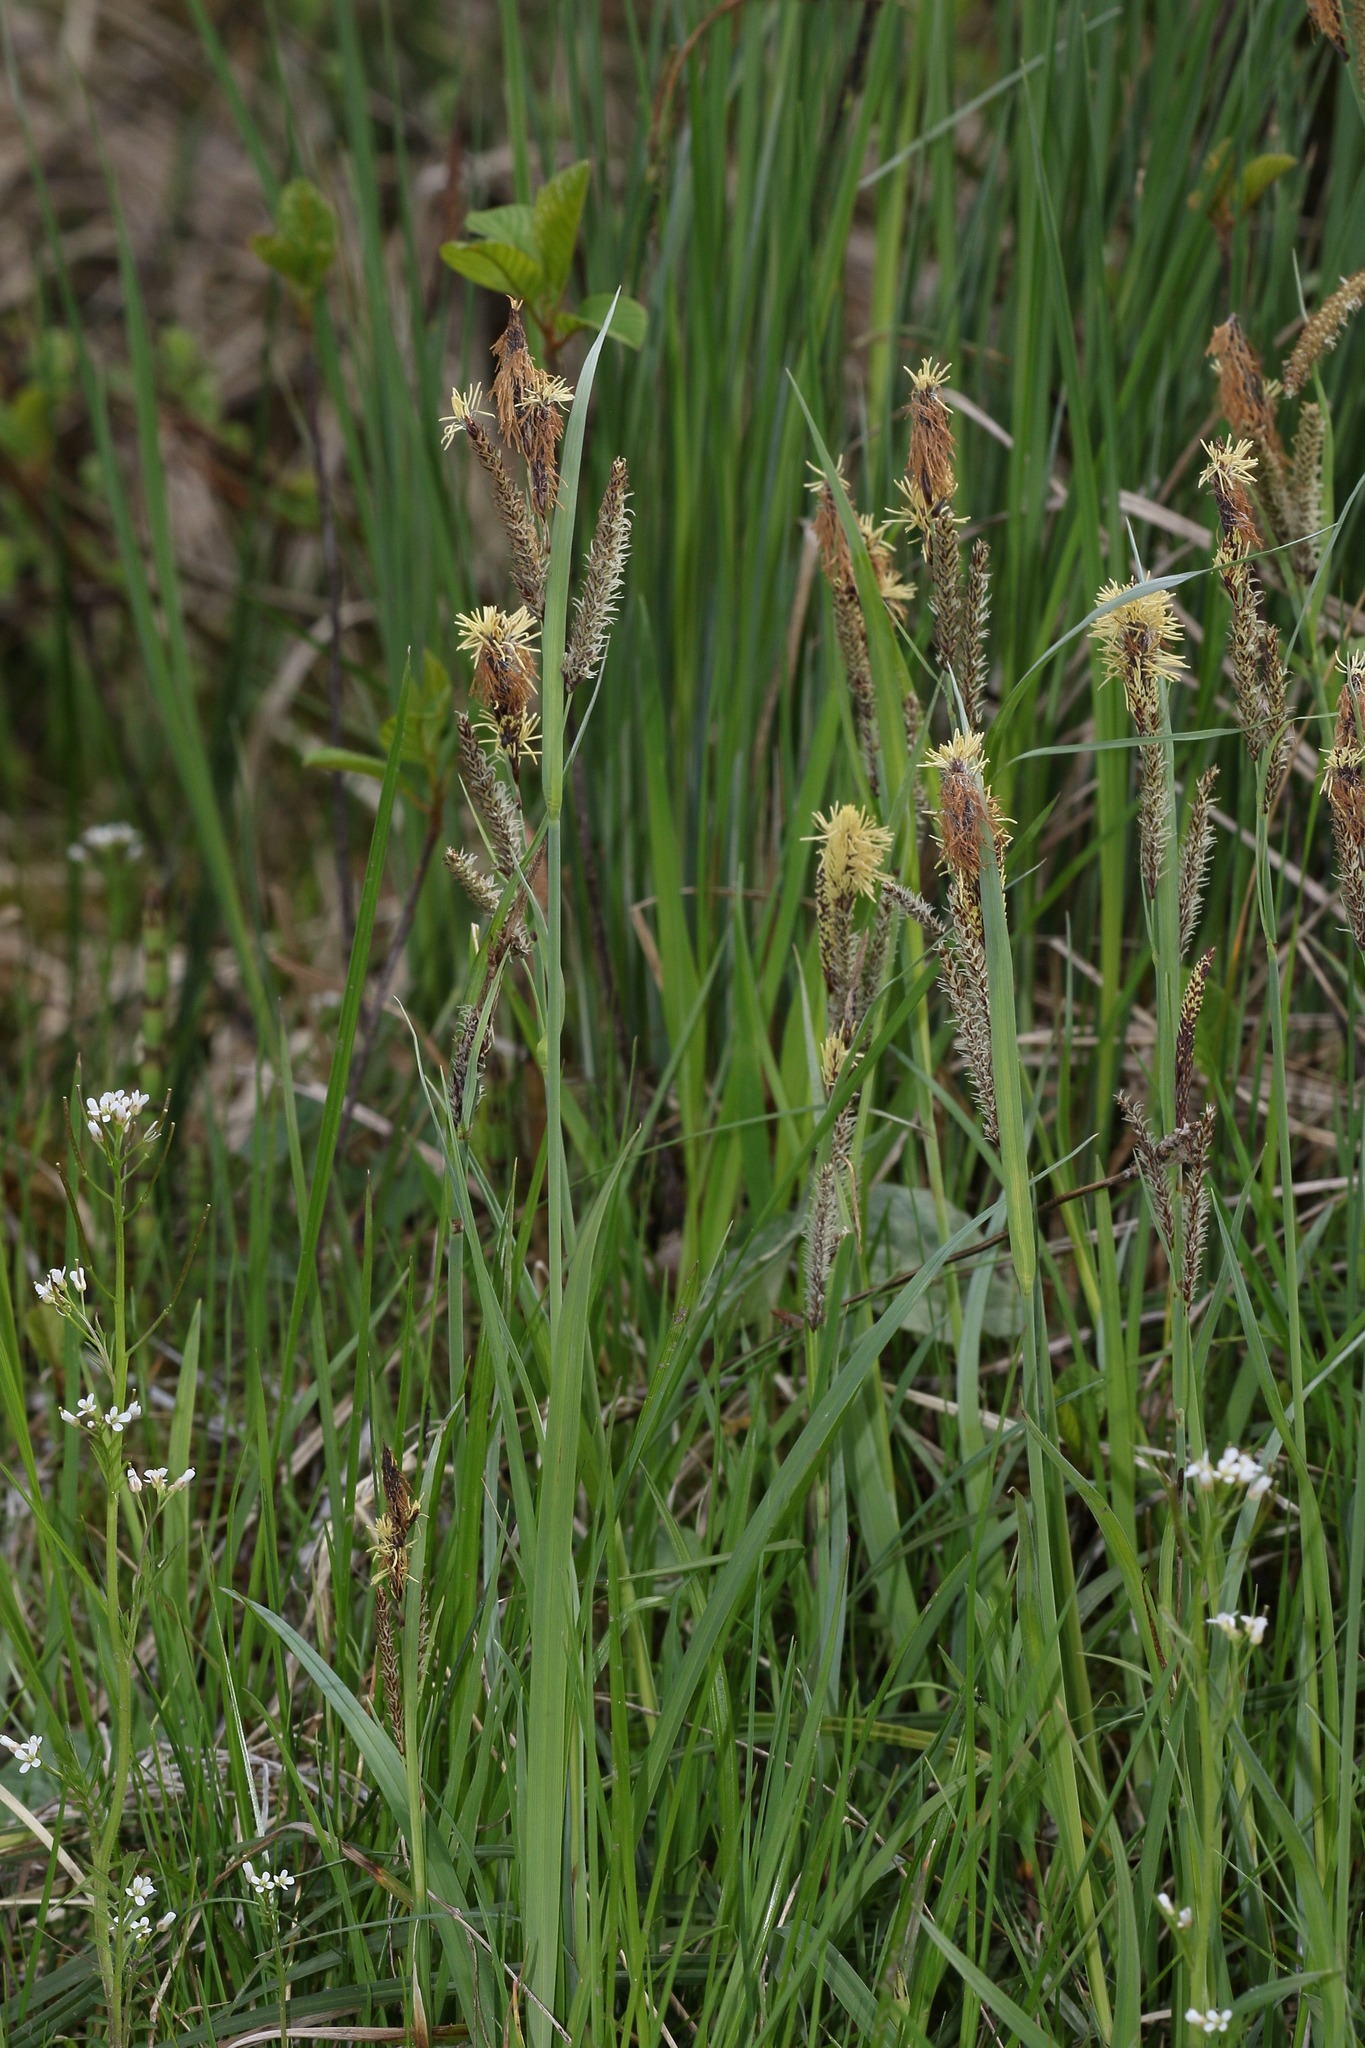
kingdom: Plantae
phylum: Tracheophyta
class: Liliopsida
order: Poales
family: Cyperaceae
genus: Carex
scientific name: Carex nigra
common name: Common sedge
